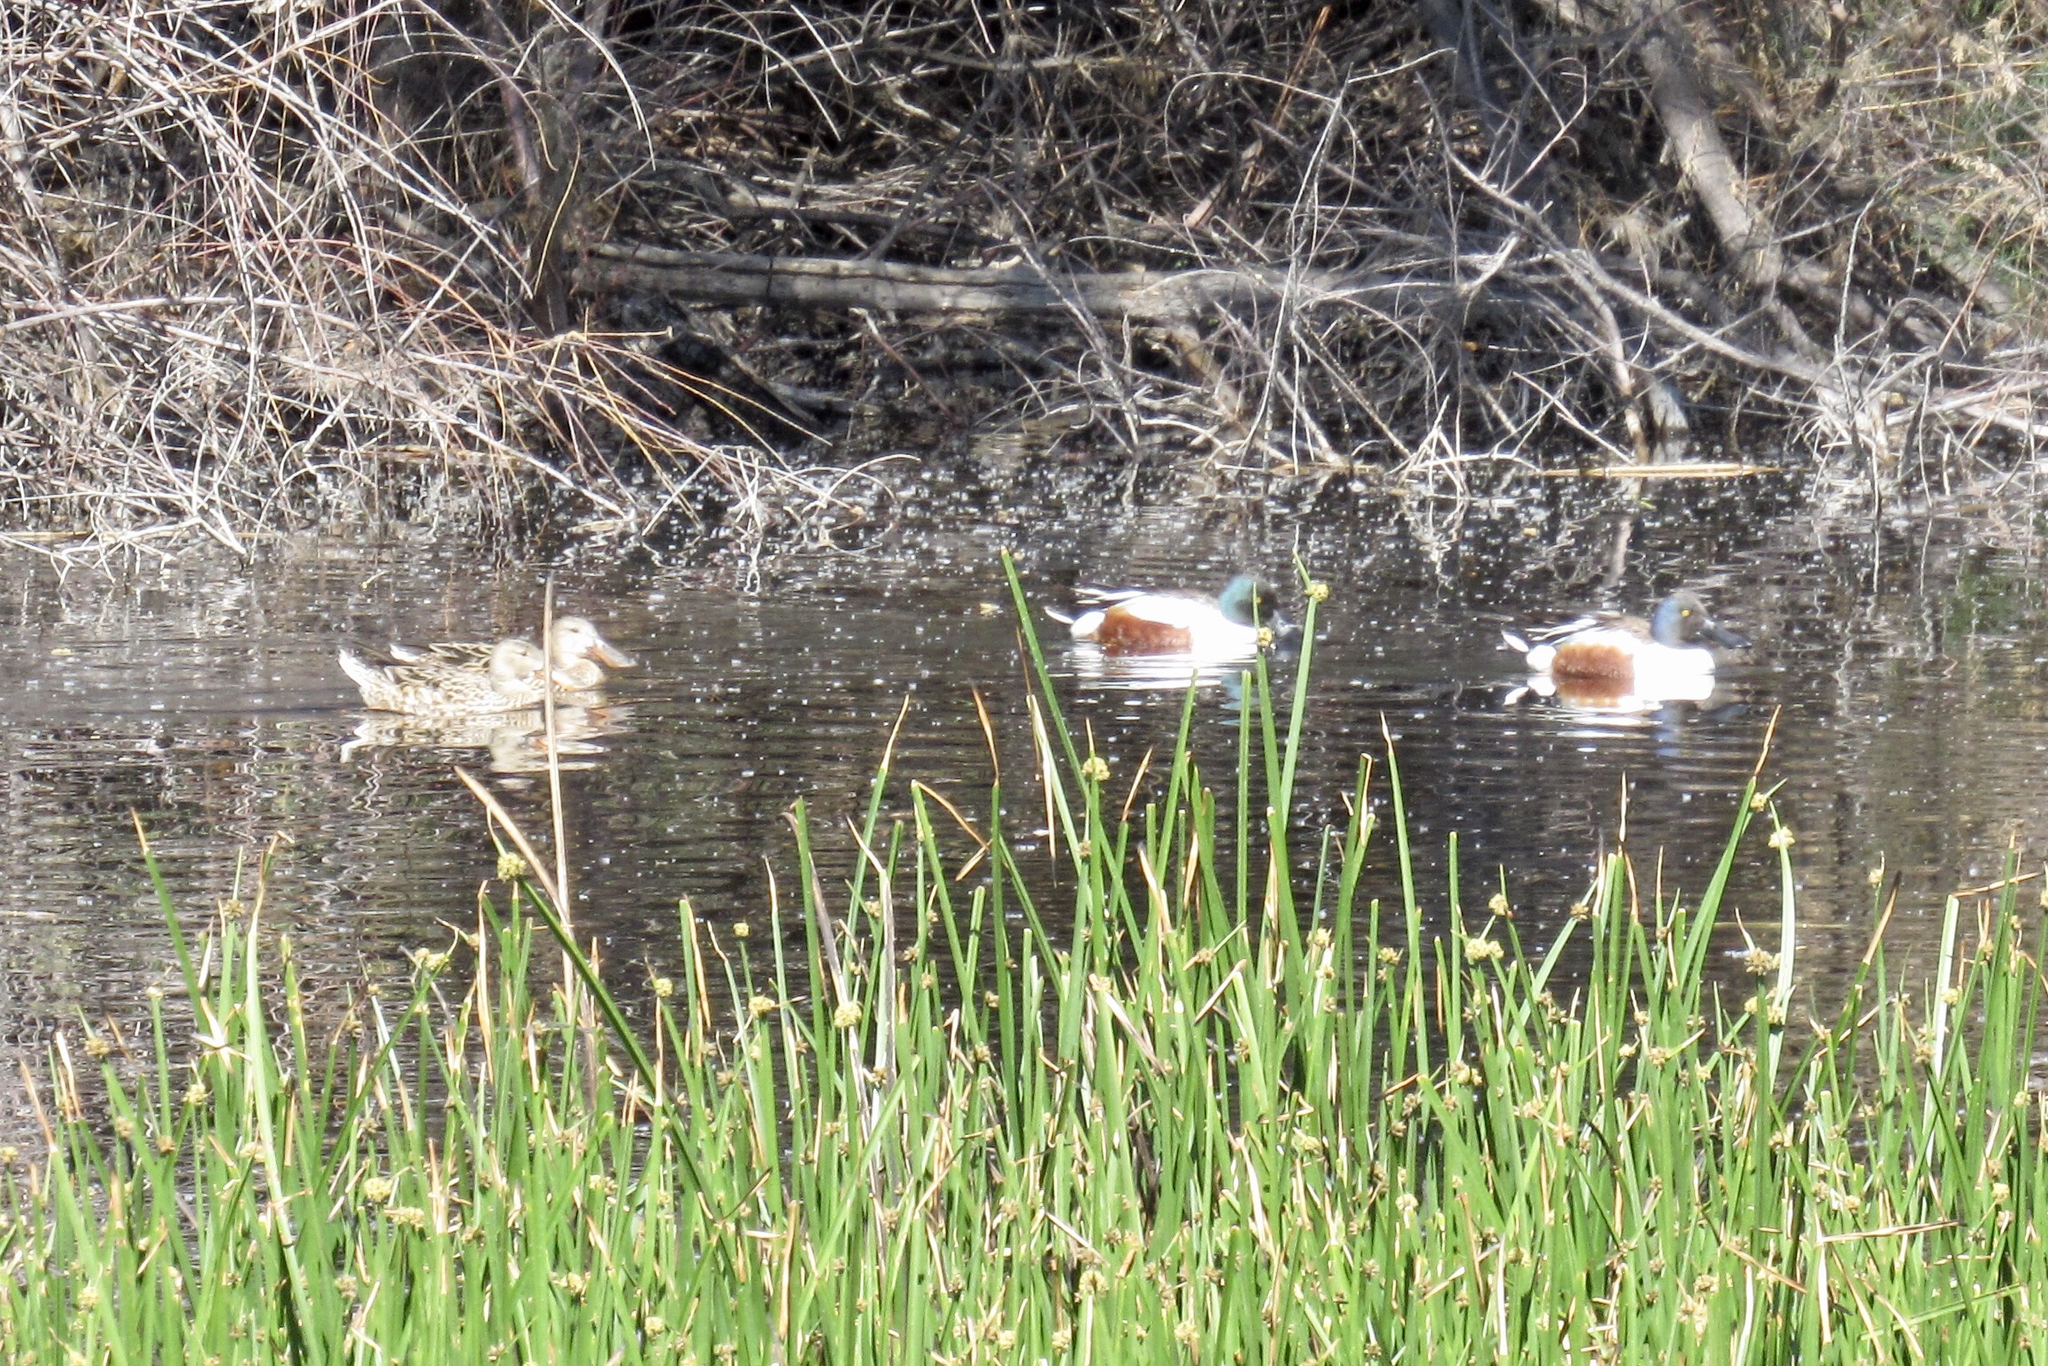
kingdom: Animalia
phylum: Chordata
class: Aves
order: Anseriformes
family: Anatidae
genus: Spatula
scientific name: Spatula clypeata
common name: Northern shoveler
